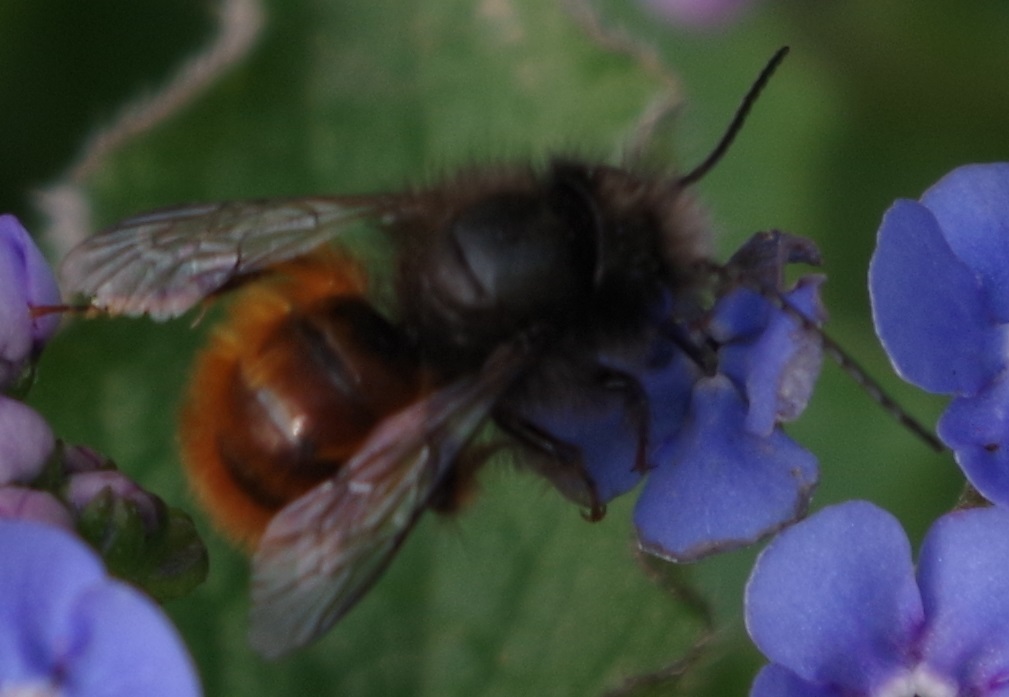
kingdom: Animalia
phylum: Arthropoda
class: Insecta
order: Hymenoptera
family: Megachilidae
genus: Osmia
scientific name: Osmia cornuta
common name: Mason bee
